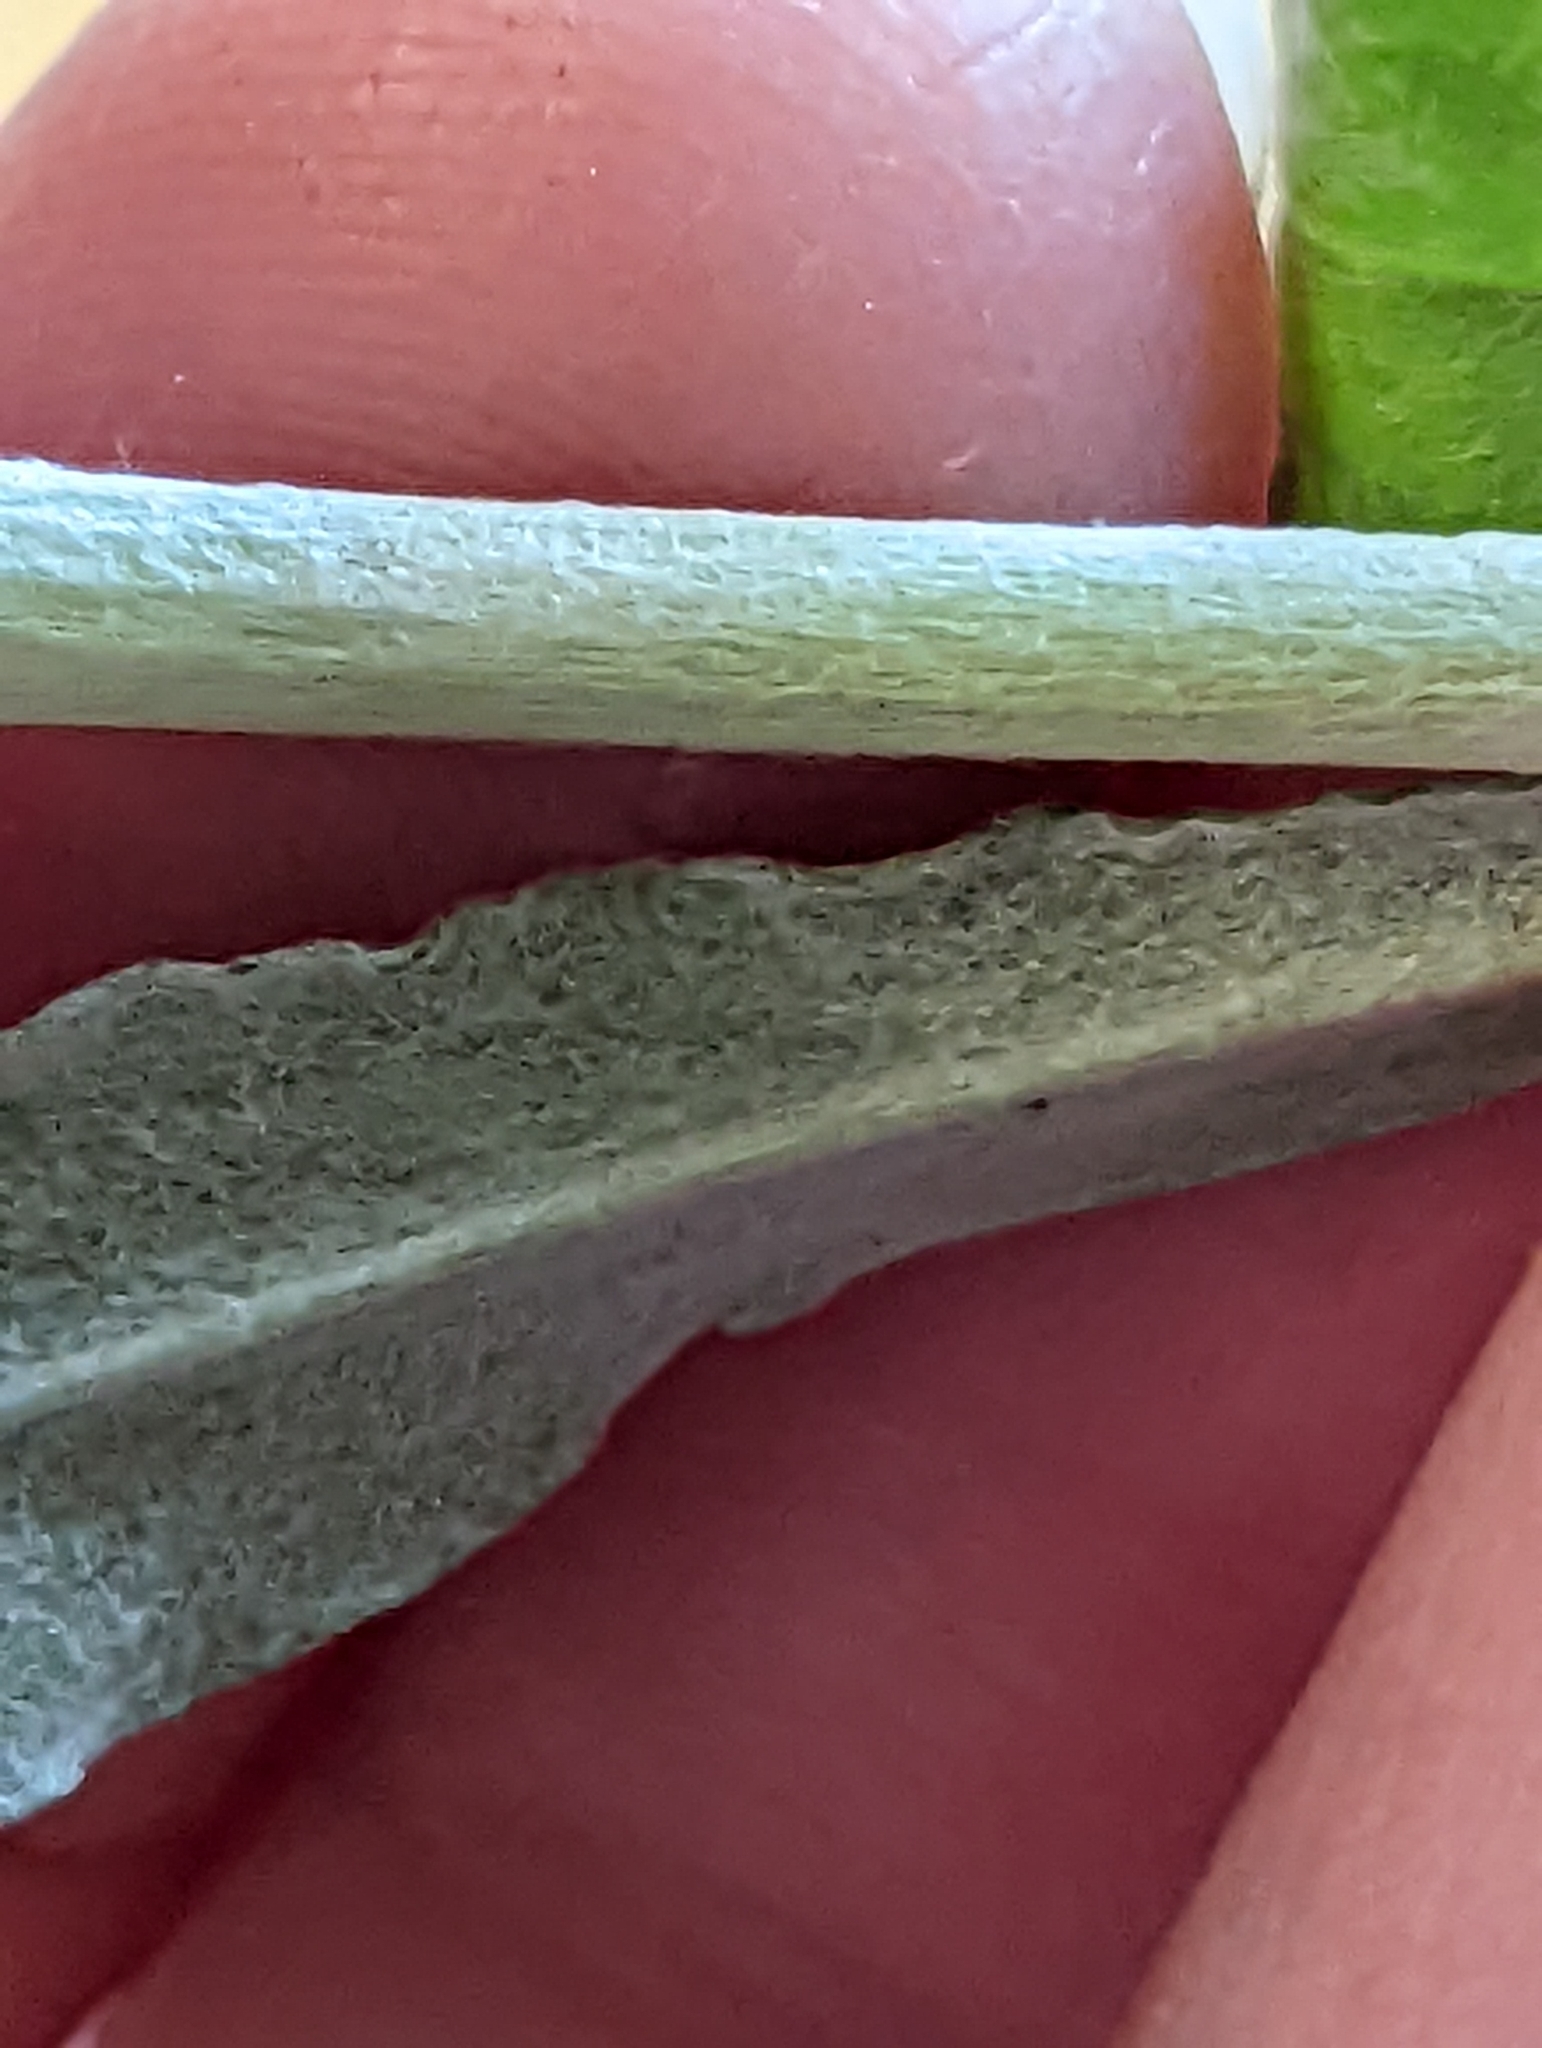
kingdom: Plantae
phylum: Tracheophyta
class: Magnoliopsida
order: Asterales
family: Asteraceae
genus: Gamochaeta
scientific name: Gamochaeta argyrinea
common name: Silvery cudweed
